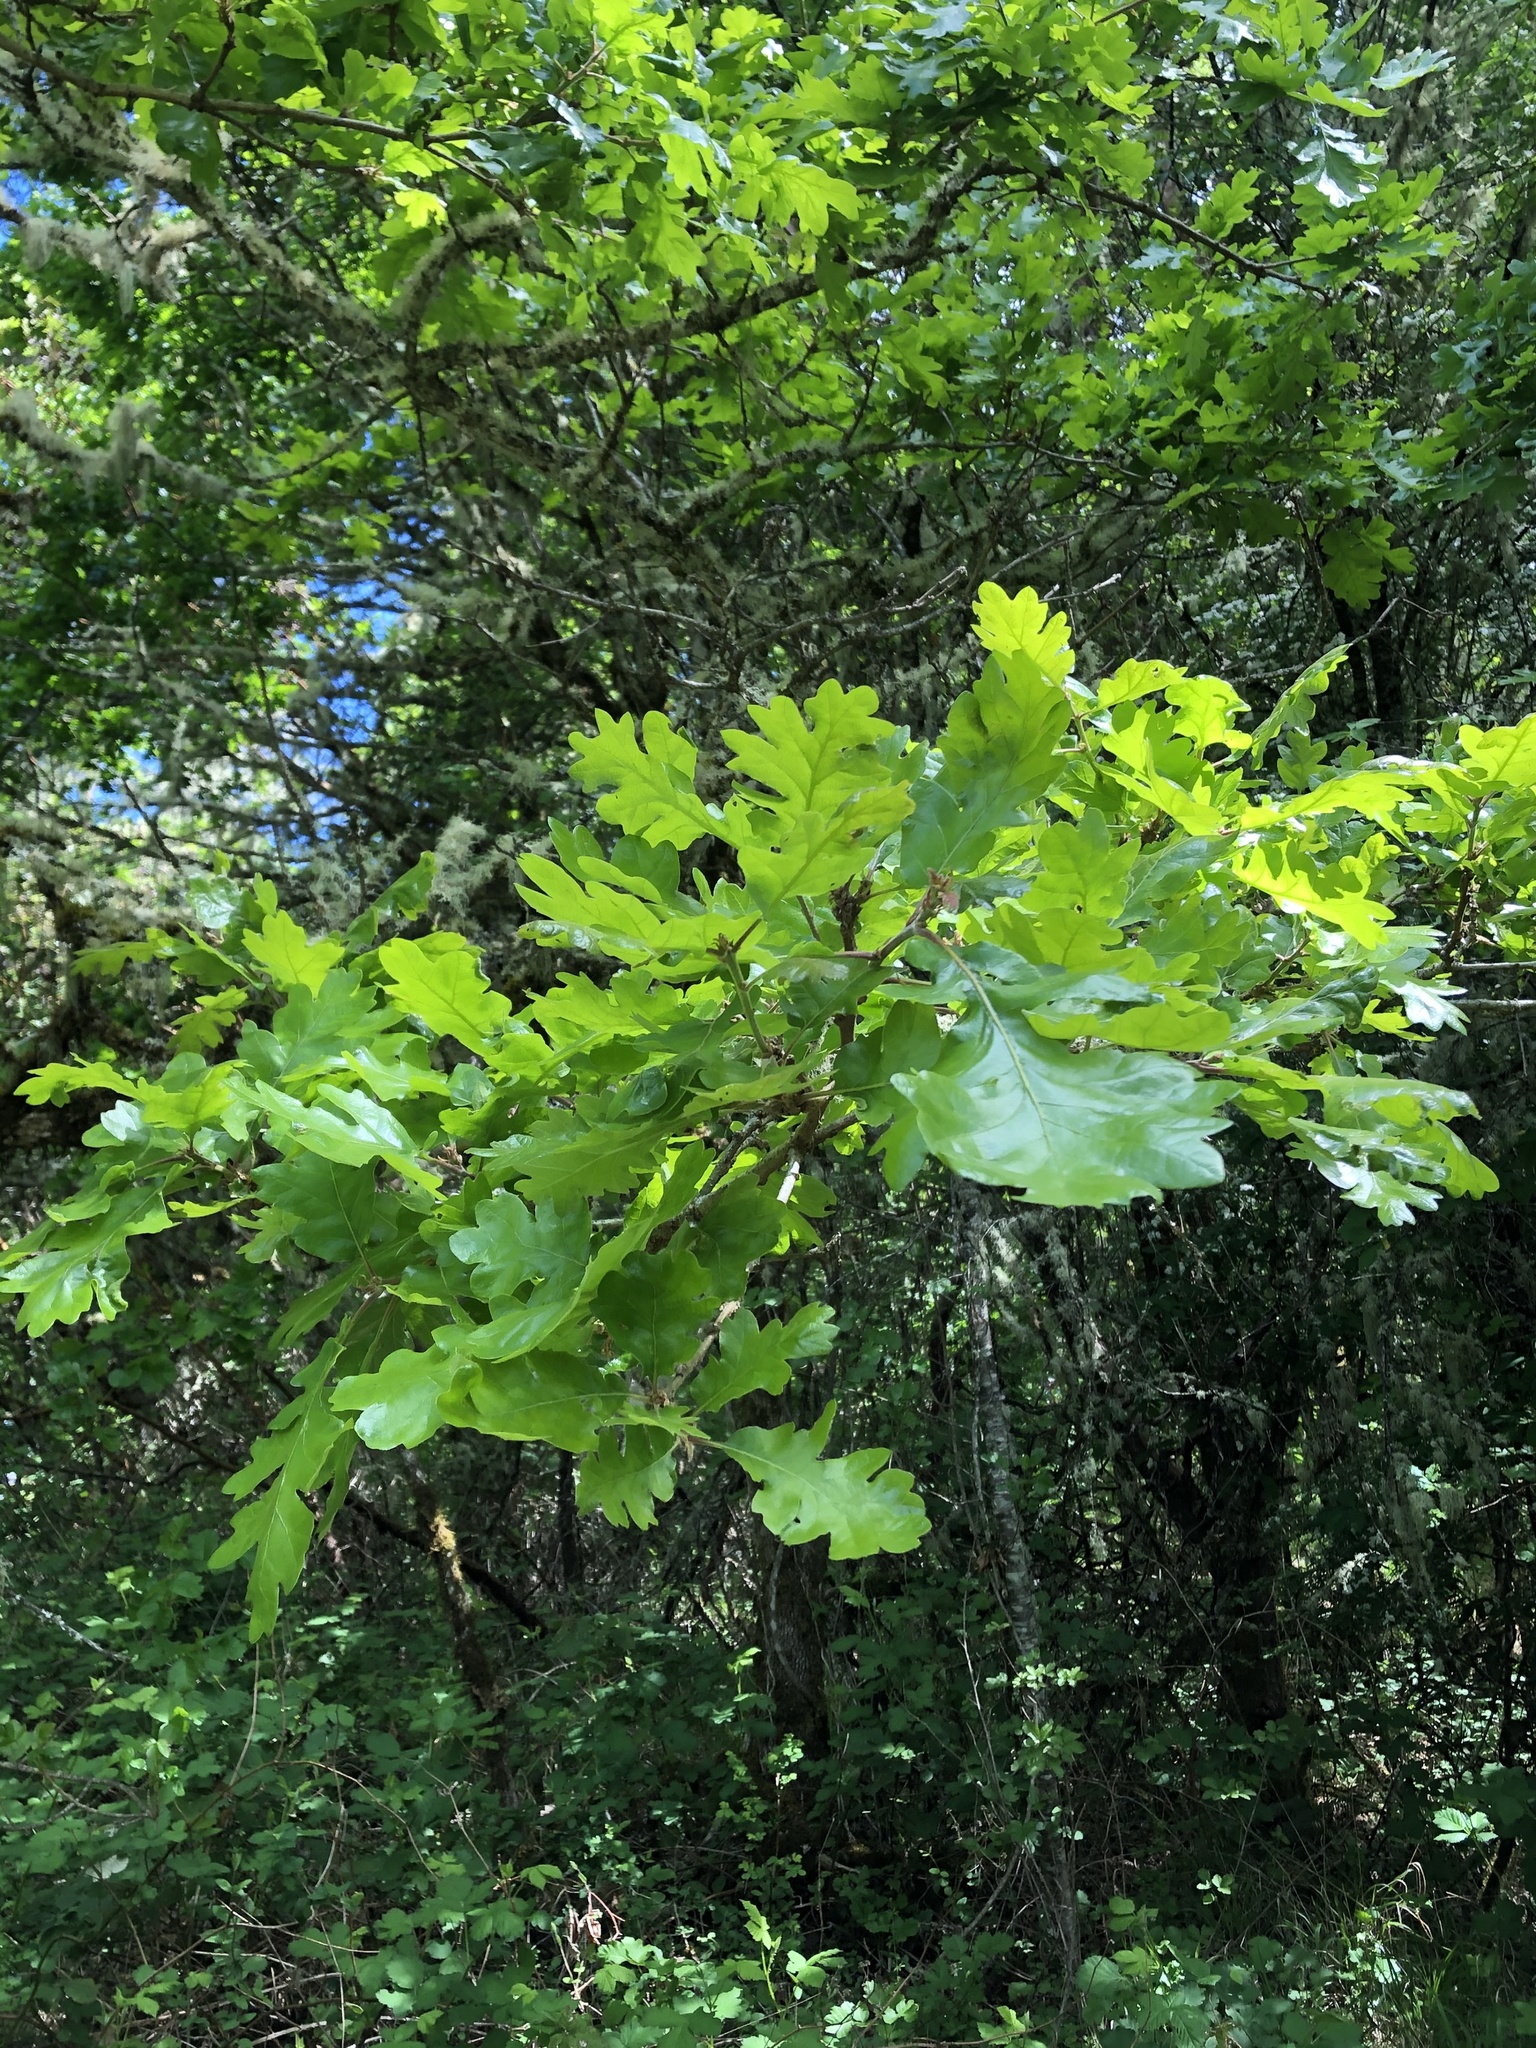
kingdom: Plantae
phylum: Tracheophyta
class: Magnoliopsida
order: Fagales
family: Fagaceae
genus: Quercus
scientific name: Quercus garryana
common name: Garry oak
